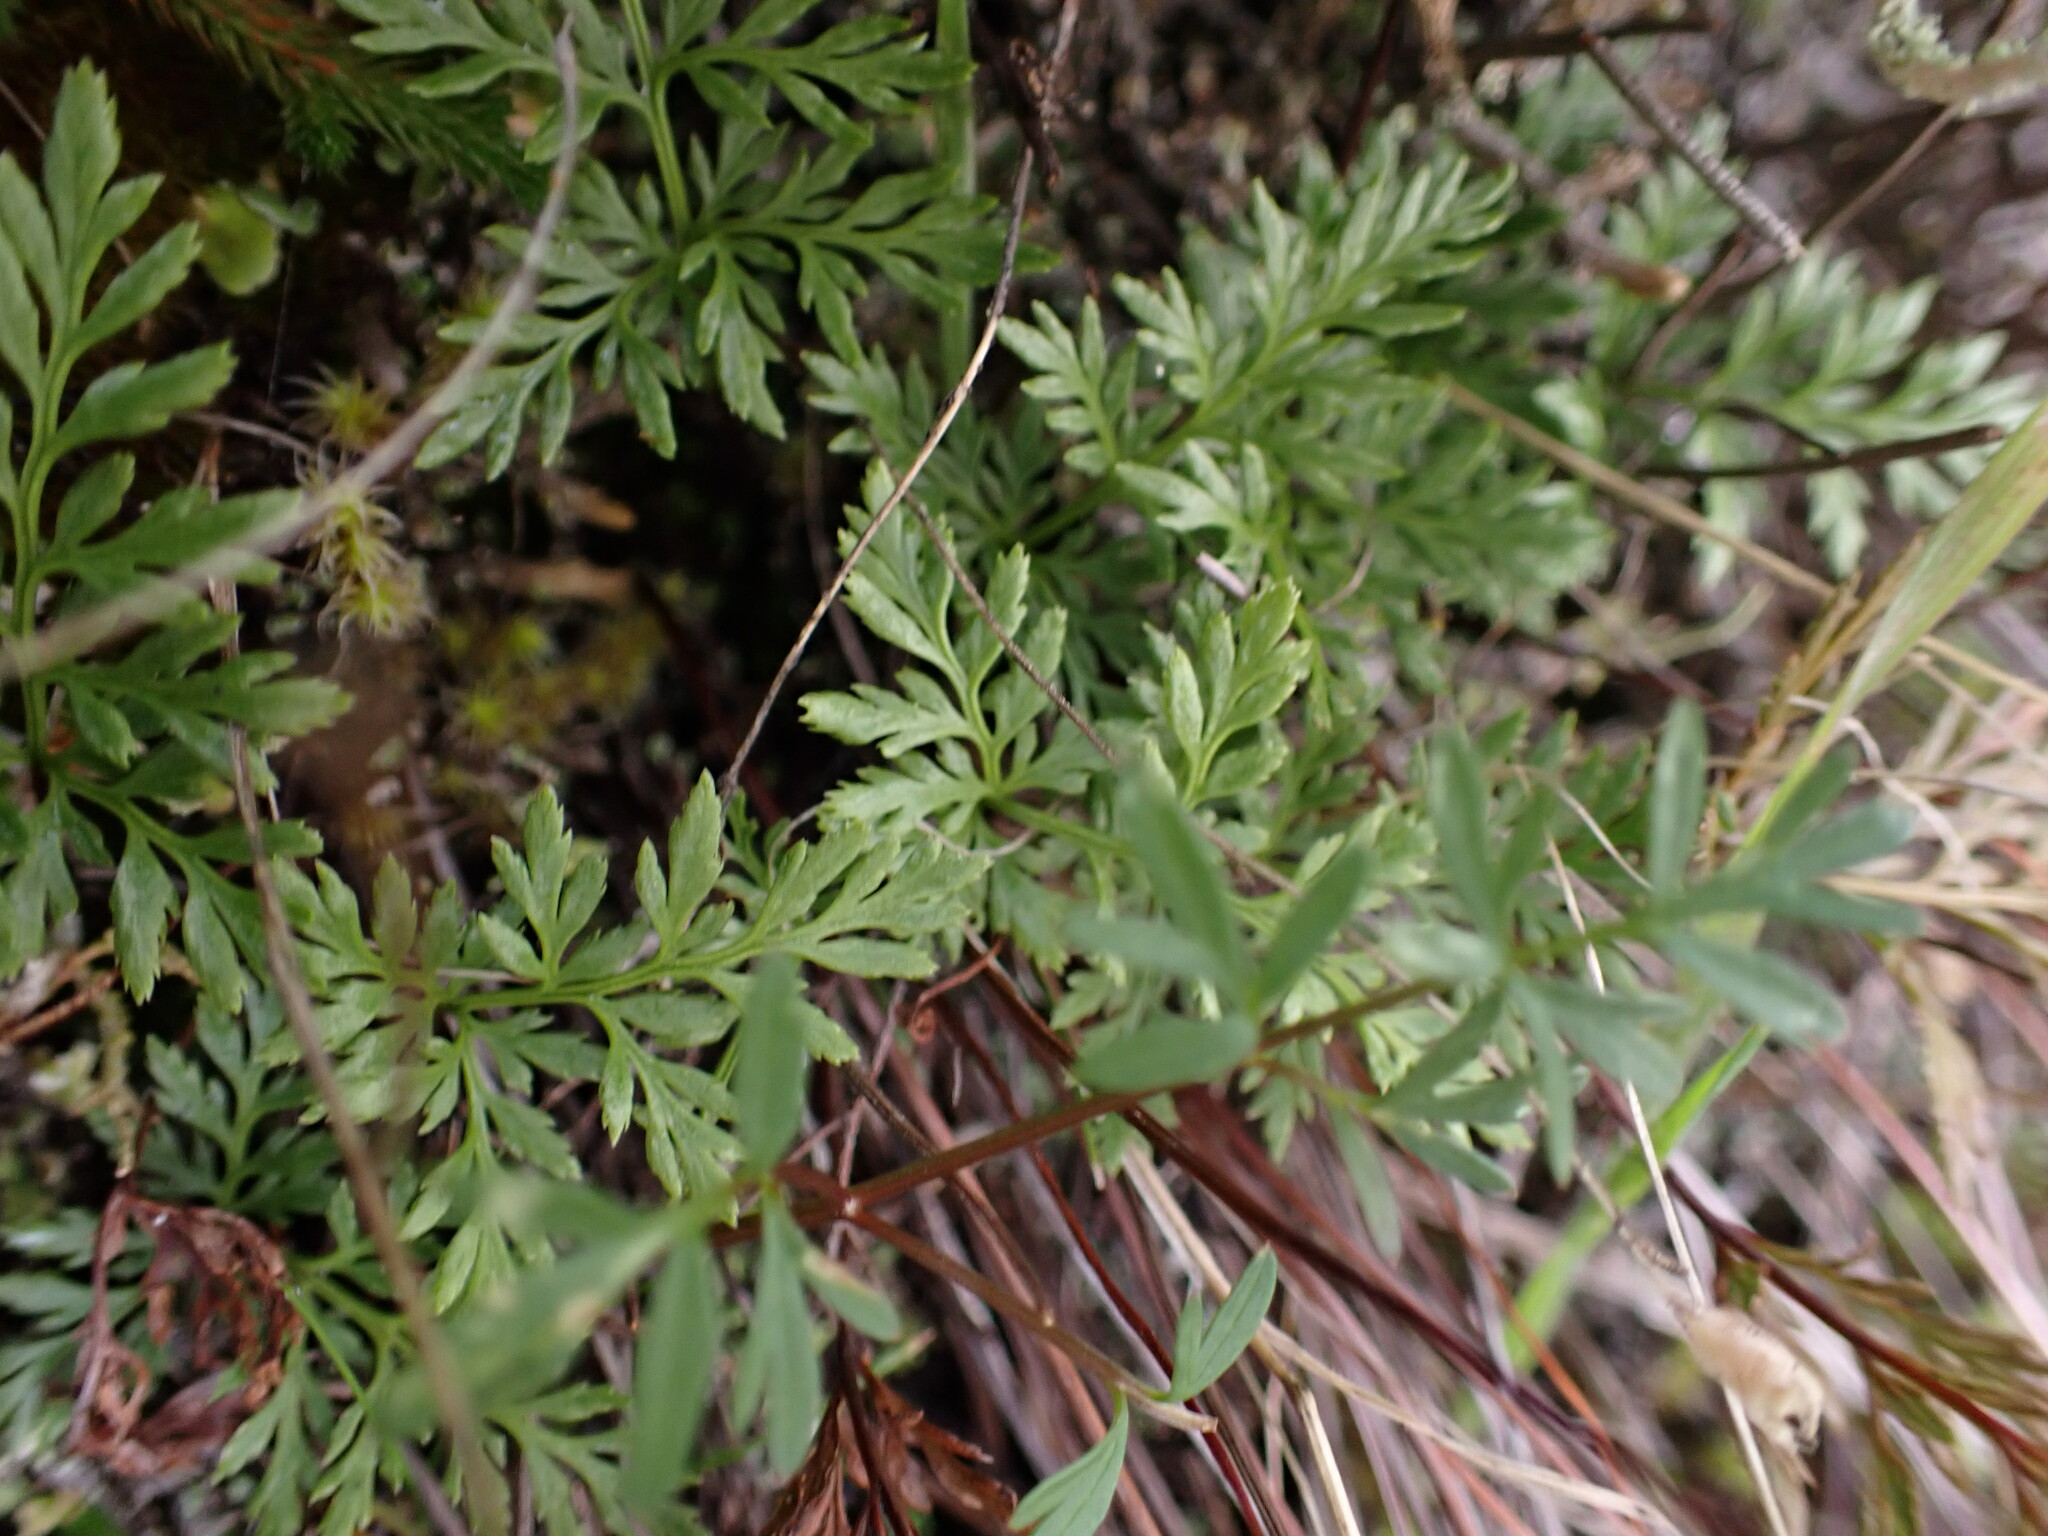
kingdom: Plantae
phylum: Tracheophyta
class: Polypodiopsida
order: Polypodiales
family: Pteridaceae
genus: Aspidotis
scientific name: Aspidotis densa
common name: Indian's dream
